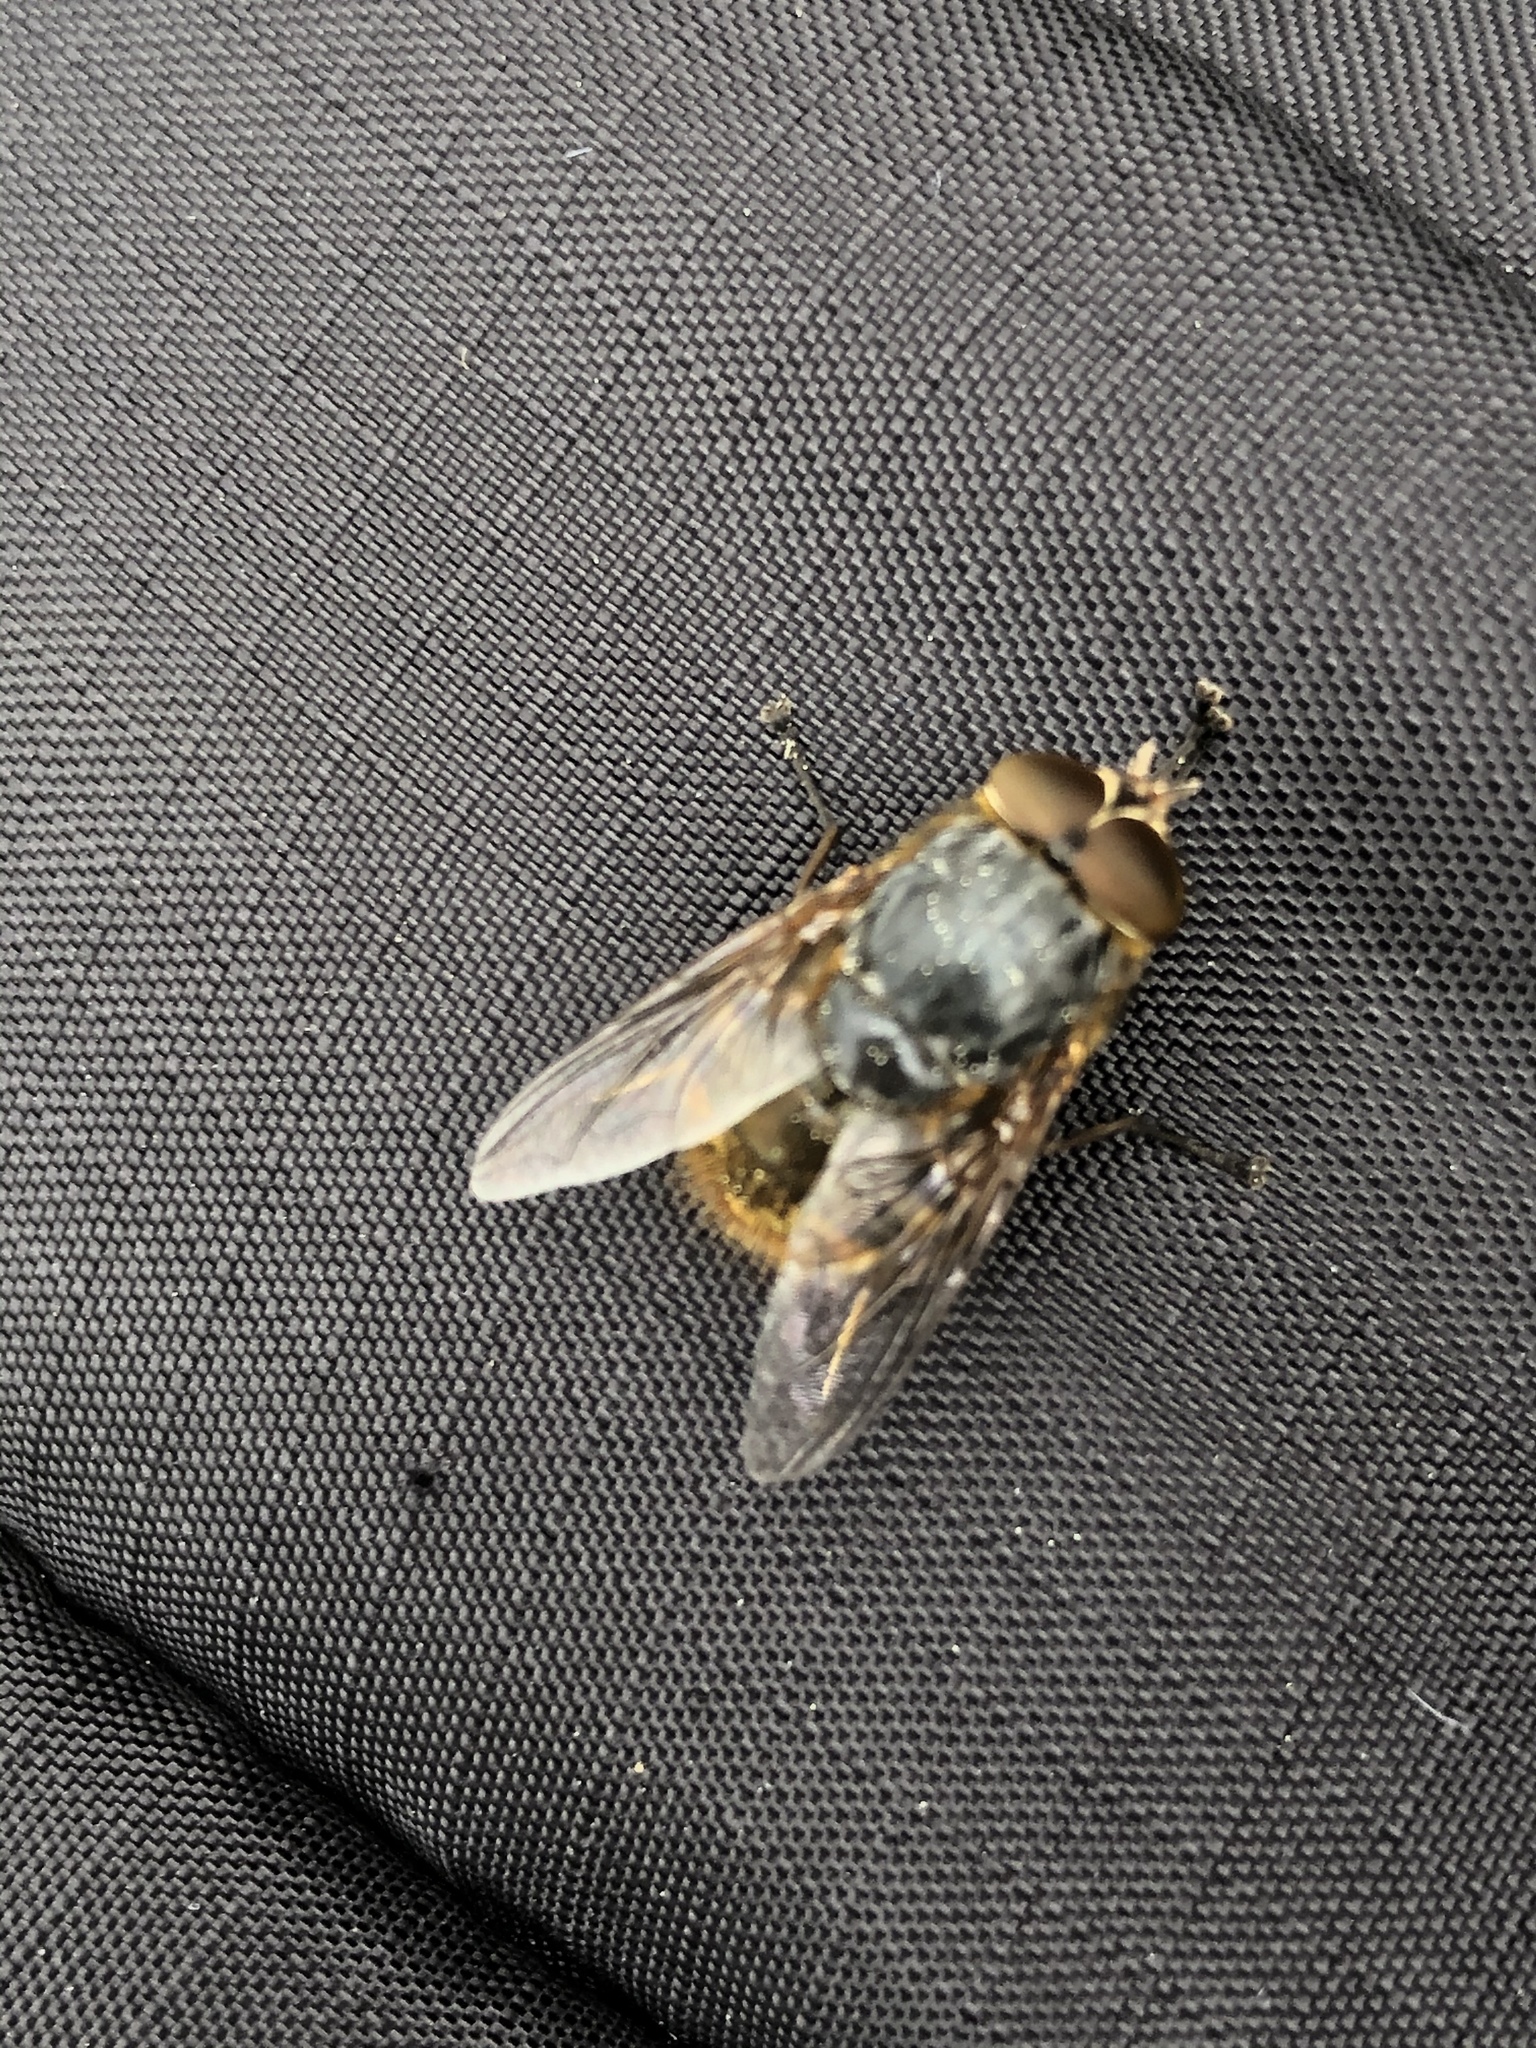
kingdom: Animalia
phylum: Arthropoda
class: Insecta
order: Diptera
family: Calliphoridae
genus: Calliphora
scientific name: Calliphora
